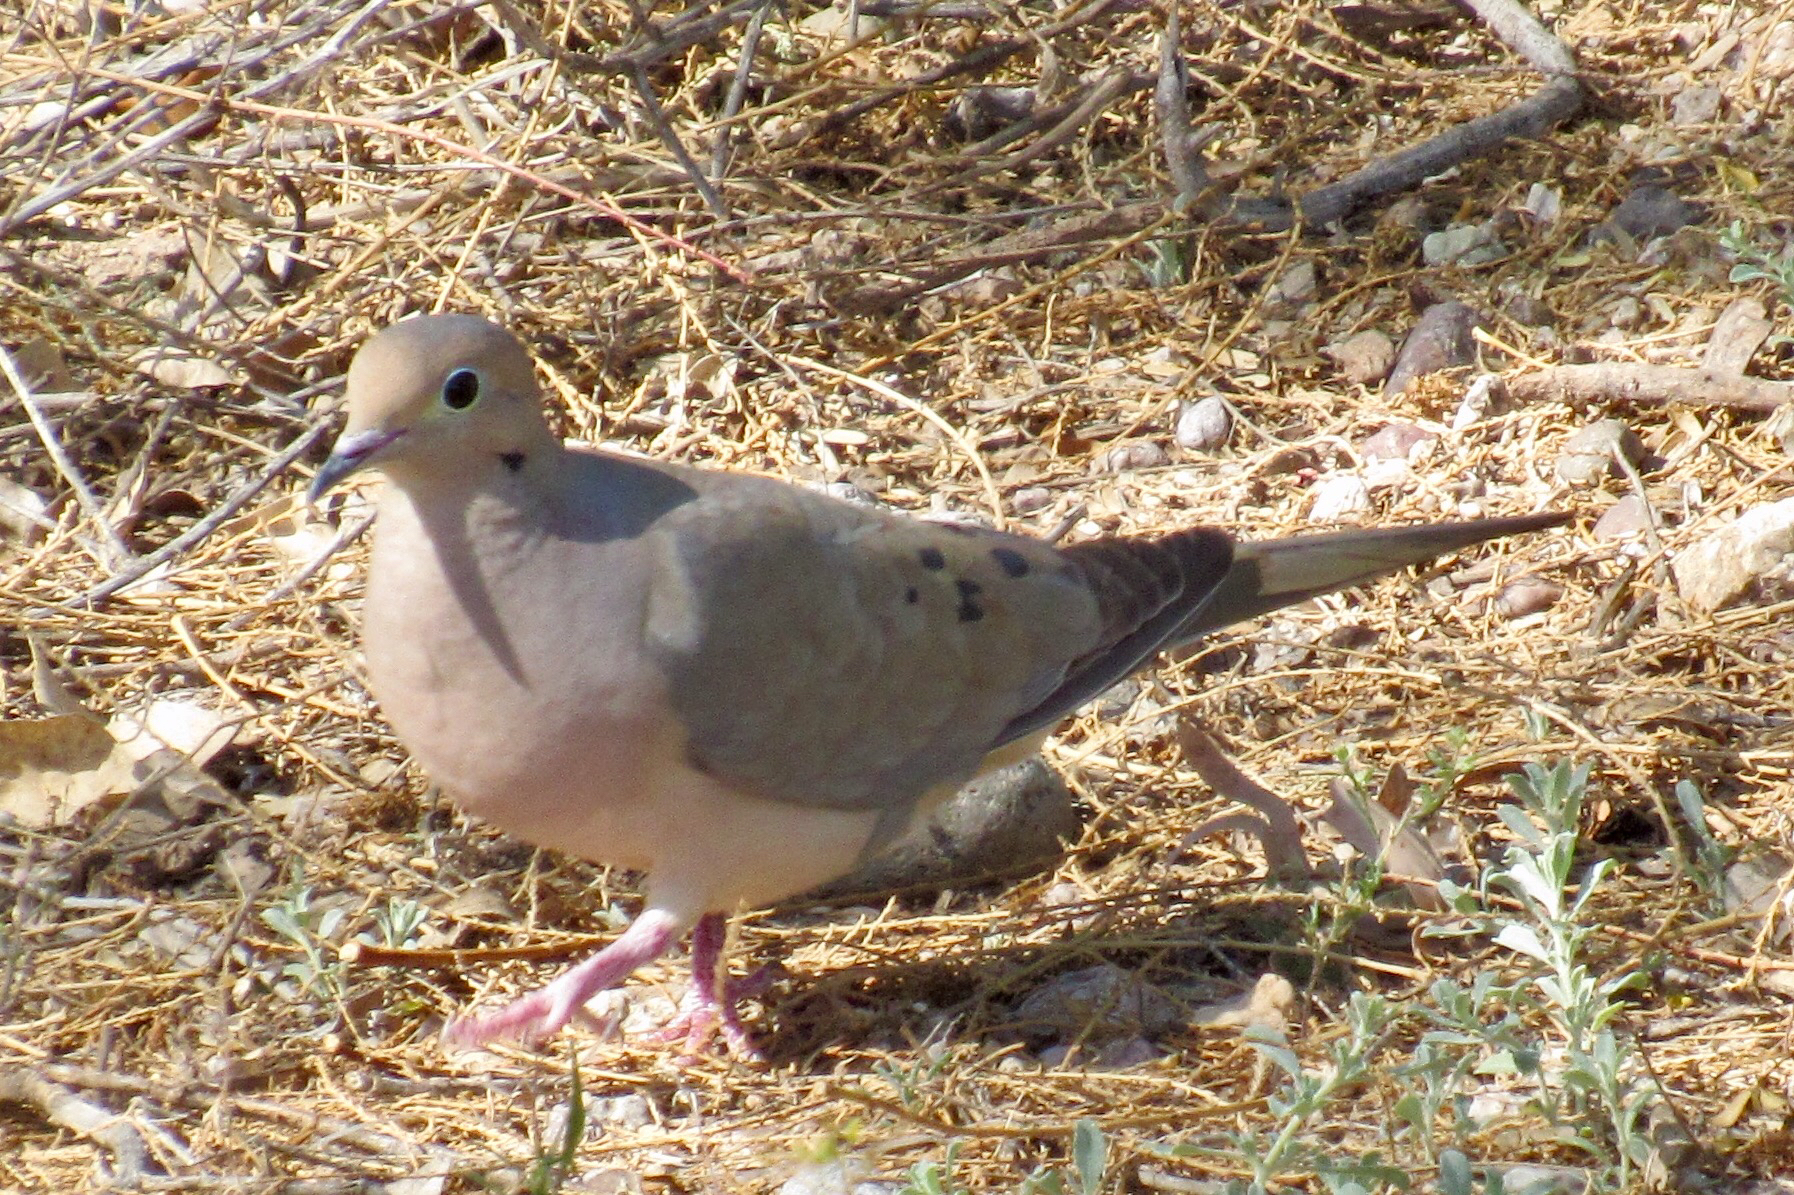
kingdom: Animalia
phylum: Chordata
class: Aves
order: Columbiformes
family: Columbidae
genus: Zenaida
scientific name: Zenaida macroura
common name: Mourning dove
